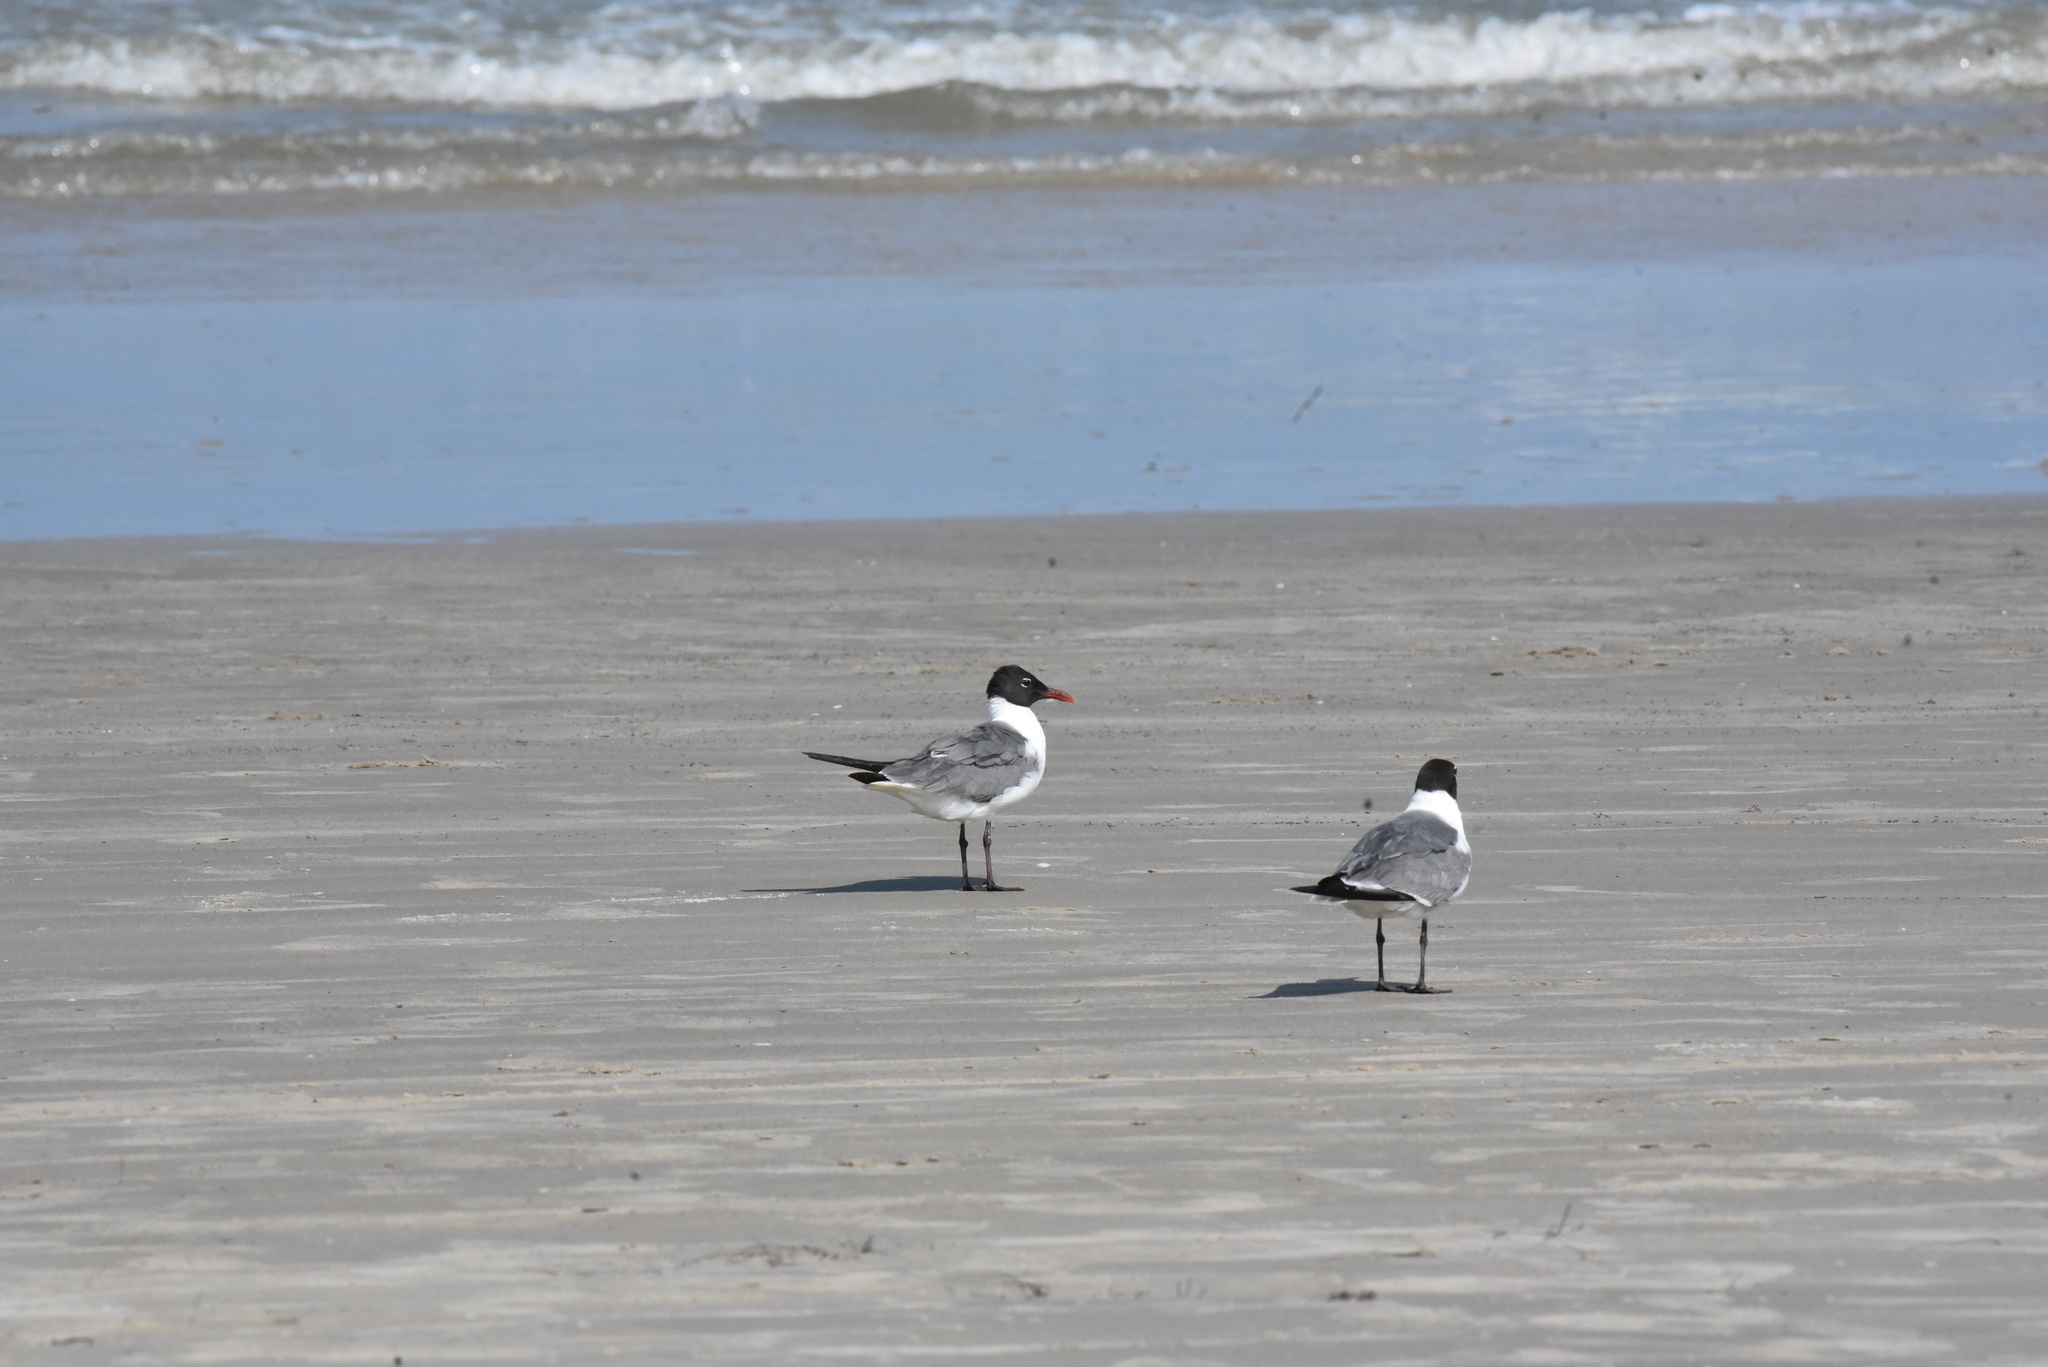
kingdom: Animalia
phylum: Chordata
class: Aves
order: Charadriiformes
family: Laridae
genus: Leucophaeus
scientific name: Leucophaeus atricilla
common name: Laughing gull
